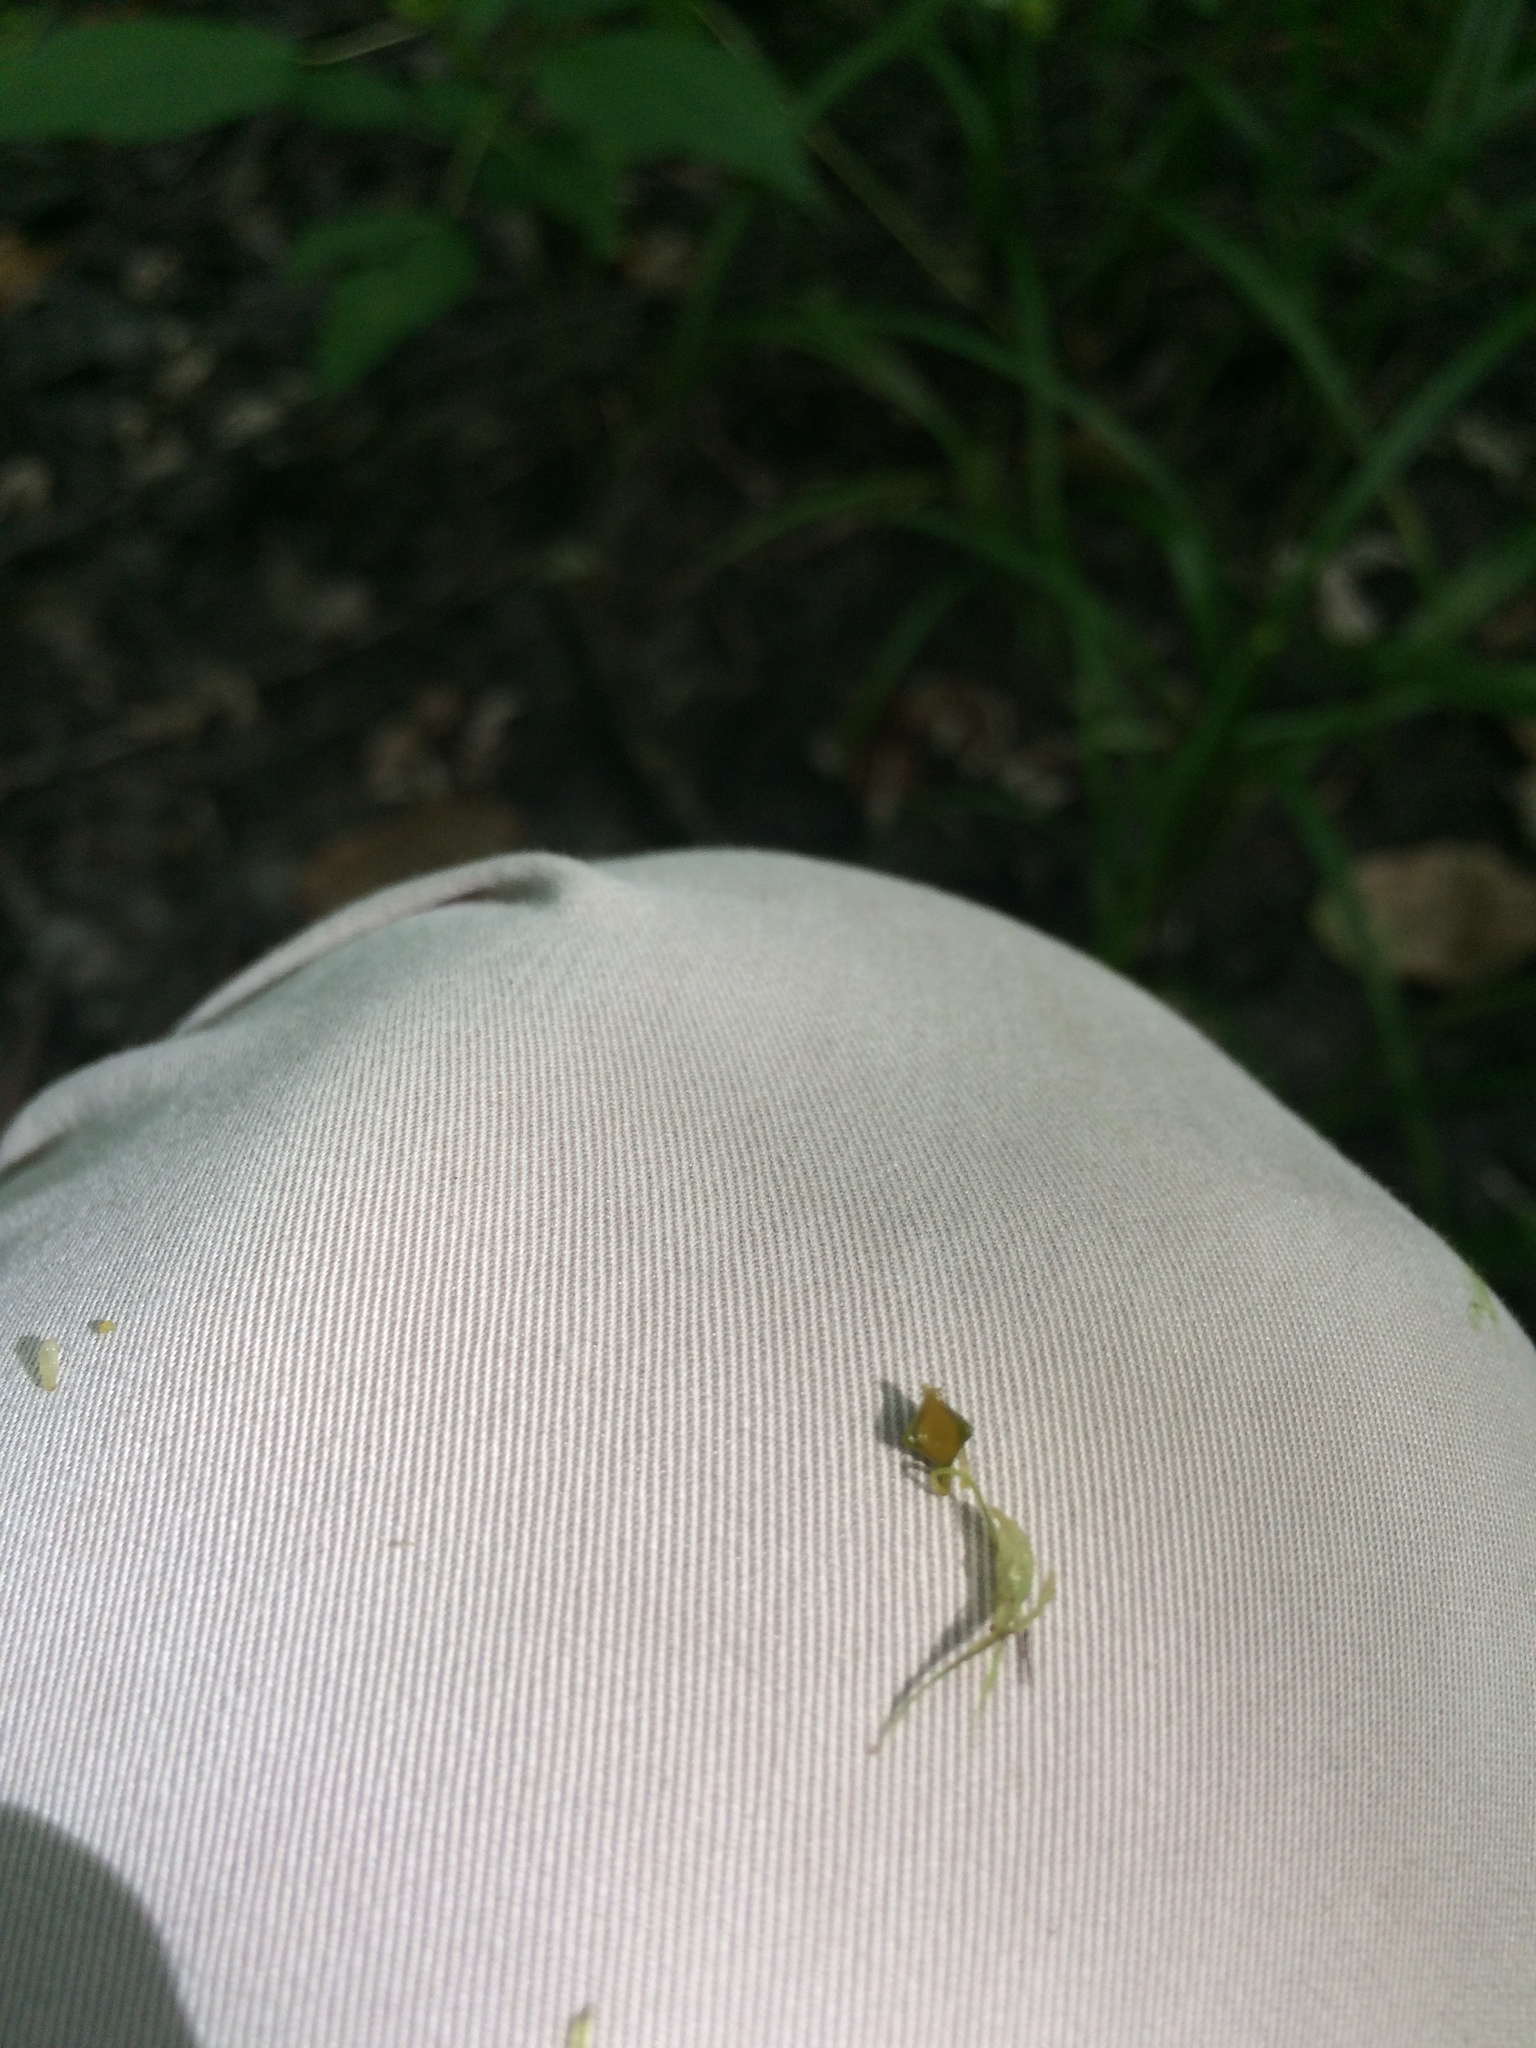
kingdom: Plantae
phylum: Tracheophyta
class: Liliopsida
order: Poales
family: Cyperaceae
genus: Carex
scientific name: Carex lupuliformis
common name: False hop sedge
